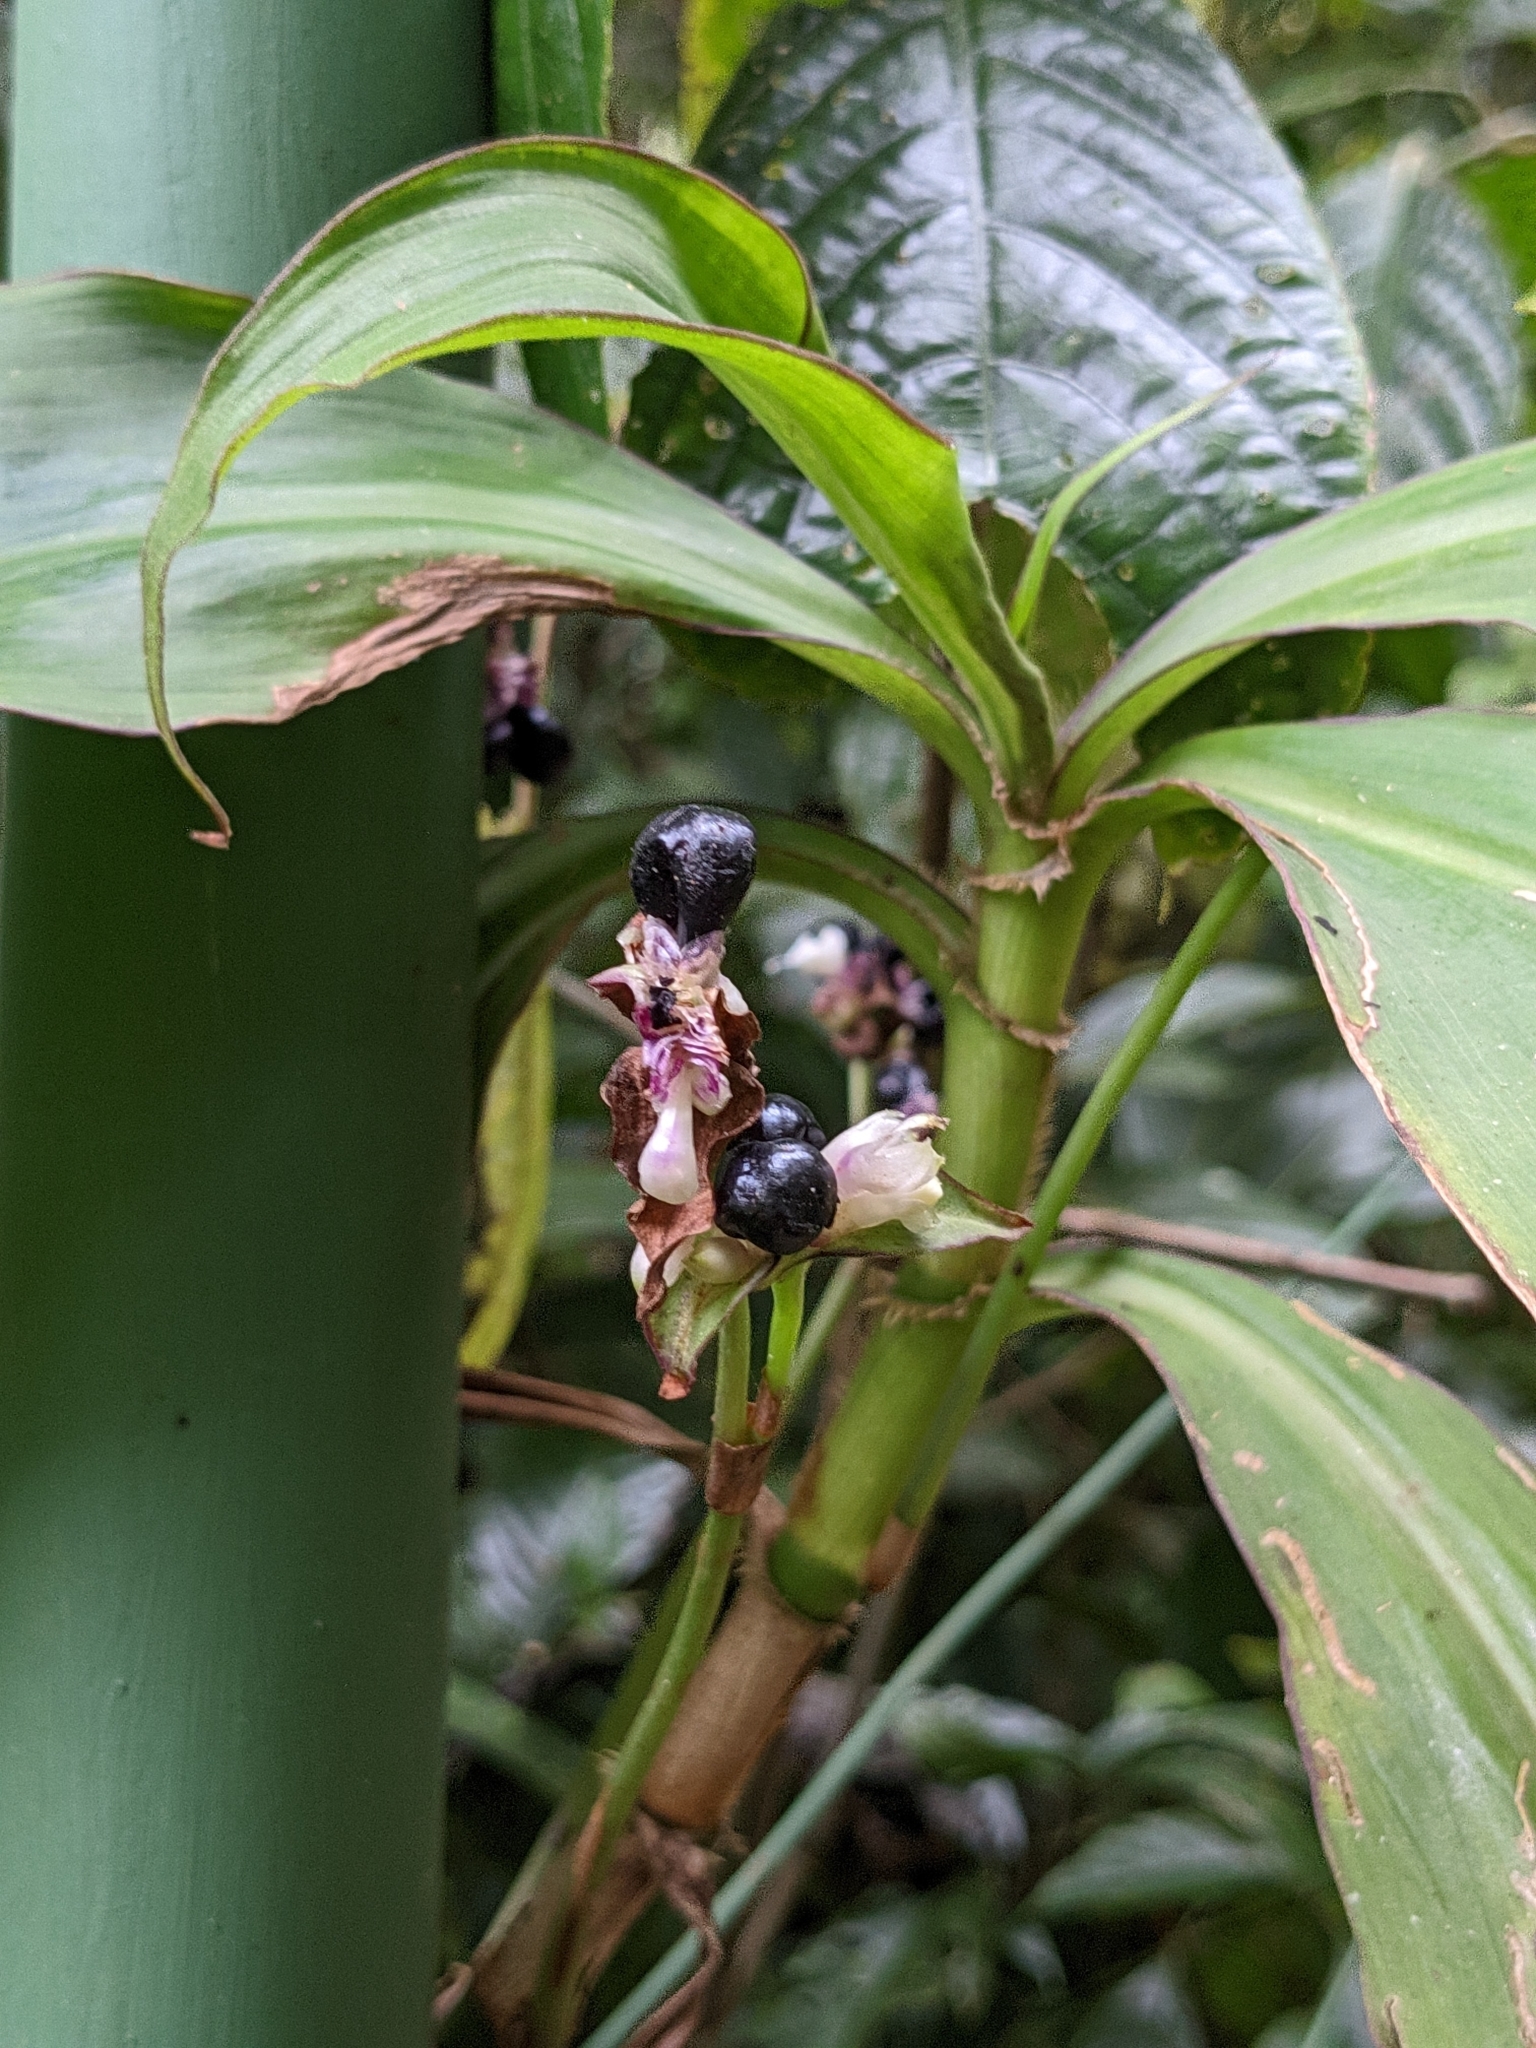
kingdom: Plantae
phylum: Tracheophyta
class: Liliopsida
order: Commelinales
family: Commelinaceae
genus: Tradescantia
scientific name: Tradescantia zanonia
